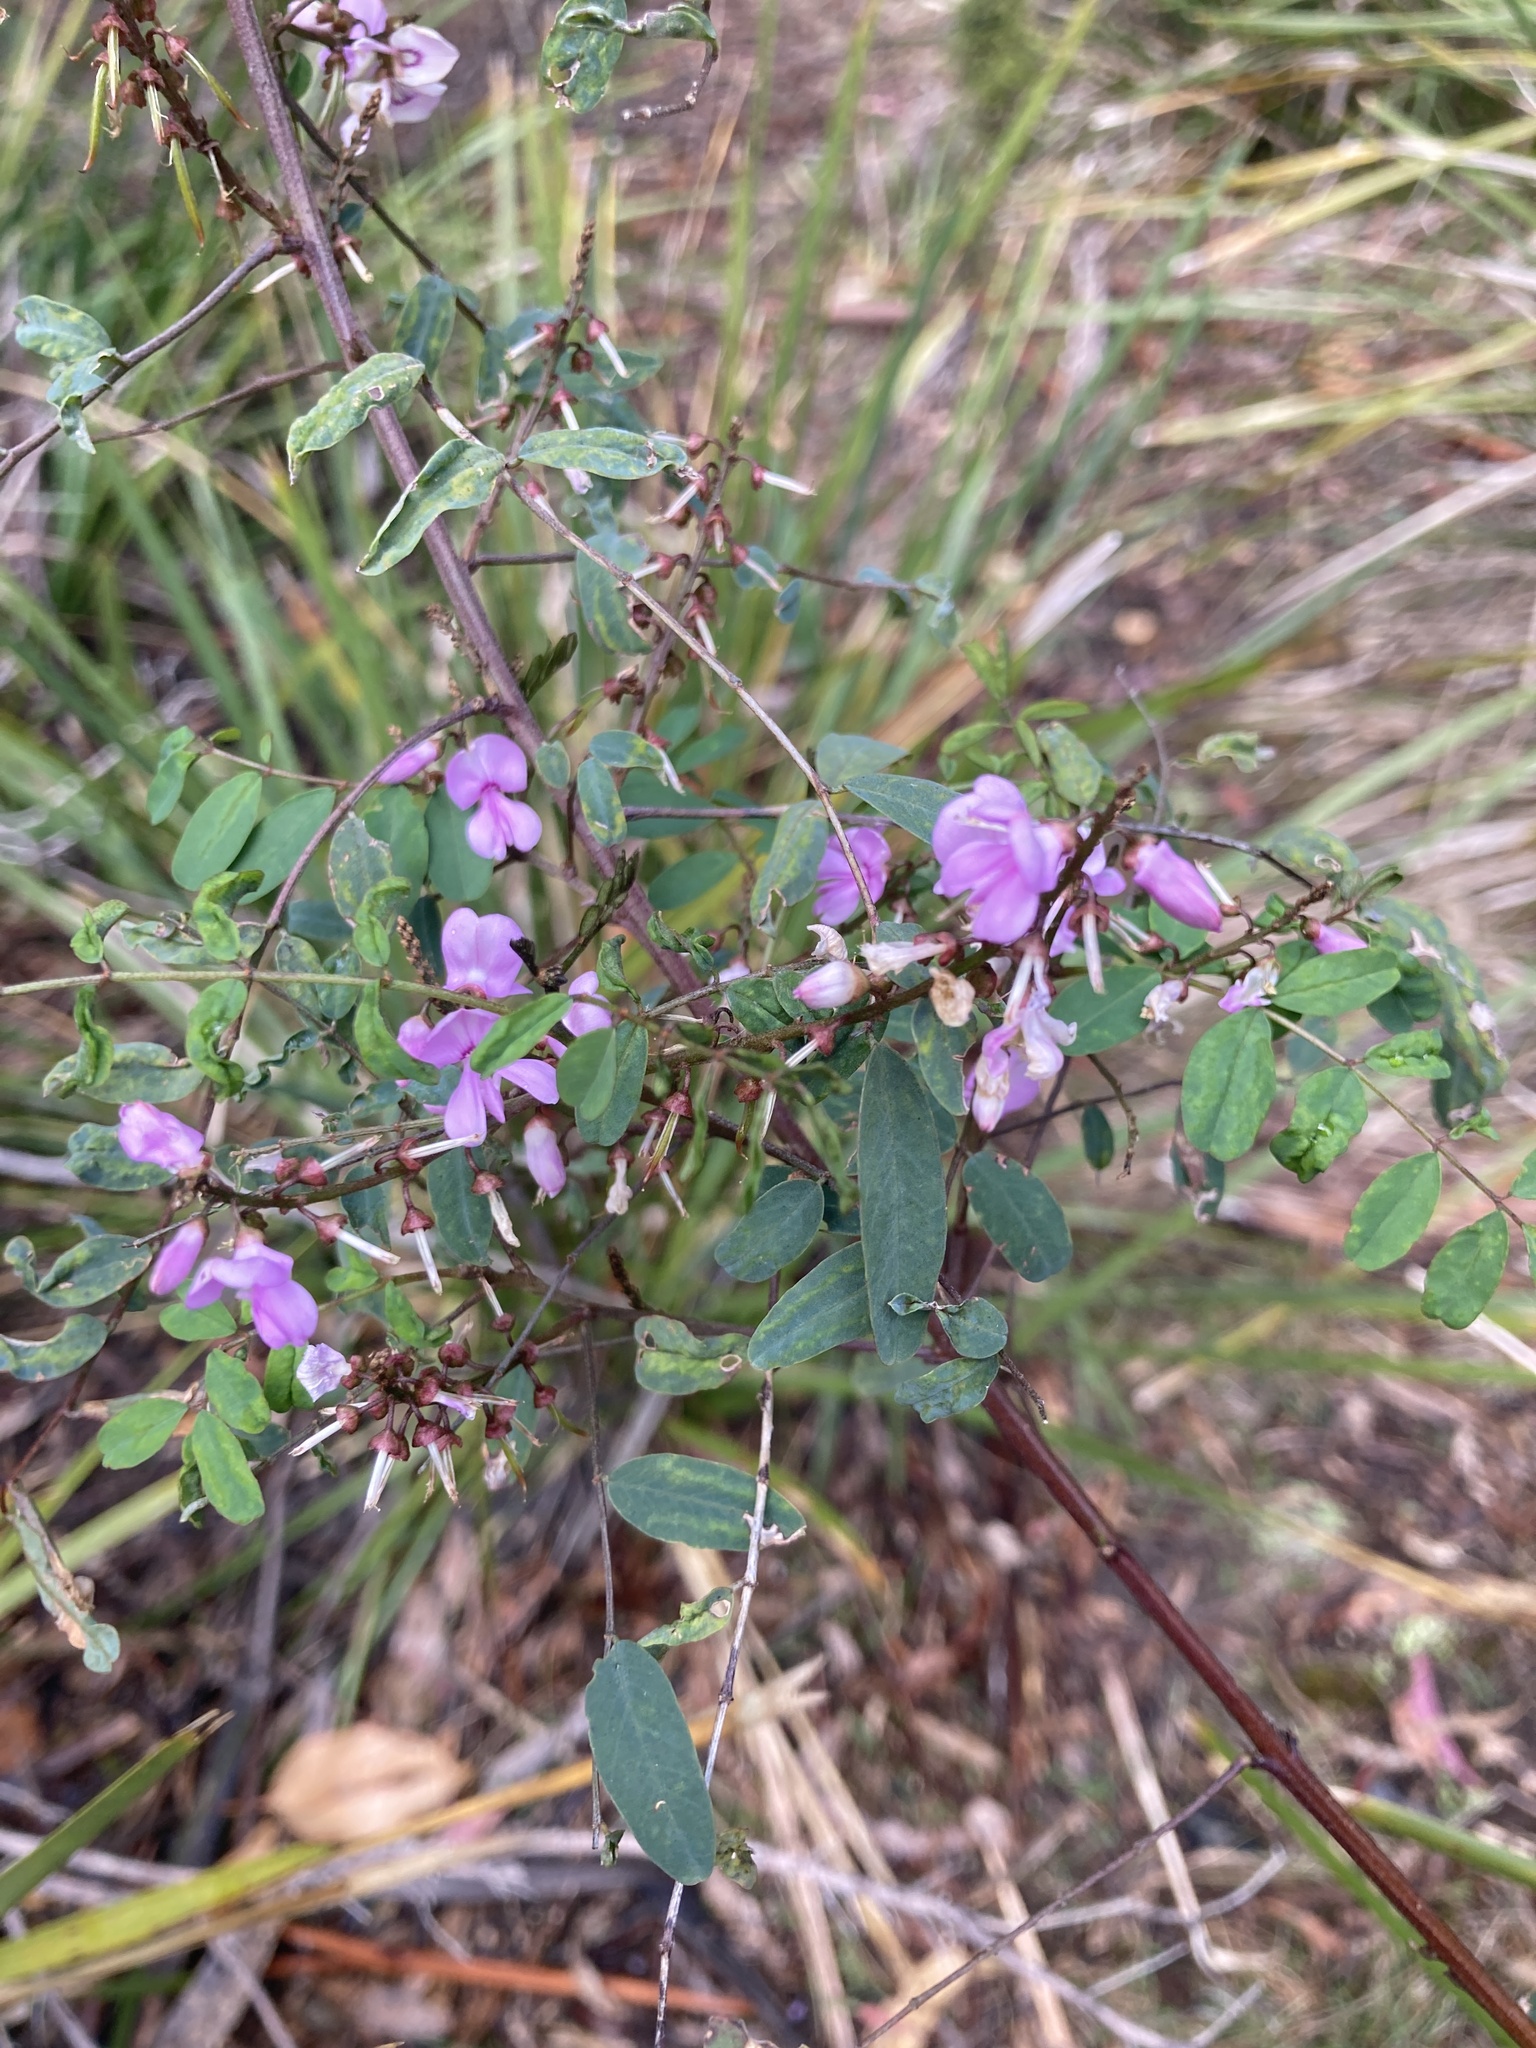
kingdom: Plantae
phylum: Tracheophyta
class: Magnoliopsida
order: Fabales
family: Fabaceae
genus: Indigofera
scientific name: Indigofera australis
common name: Australian indigo
